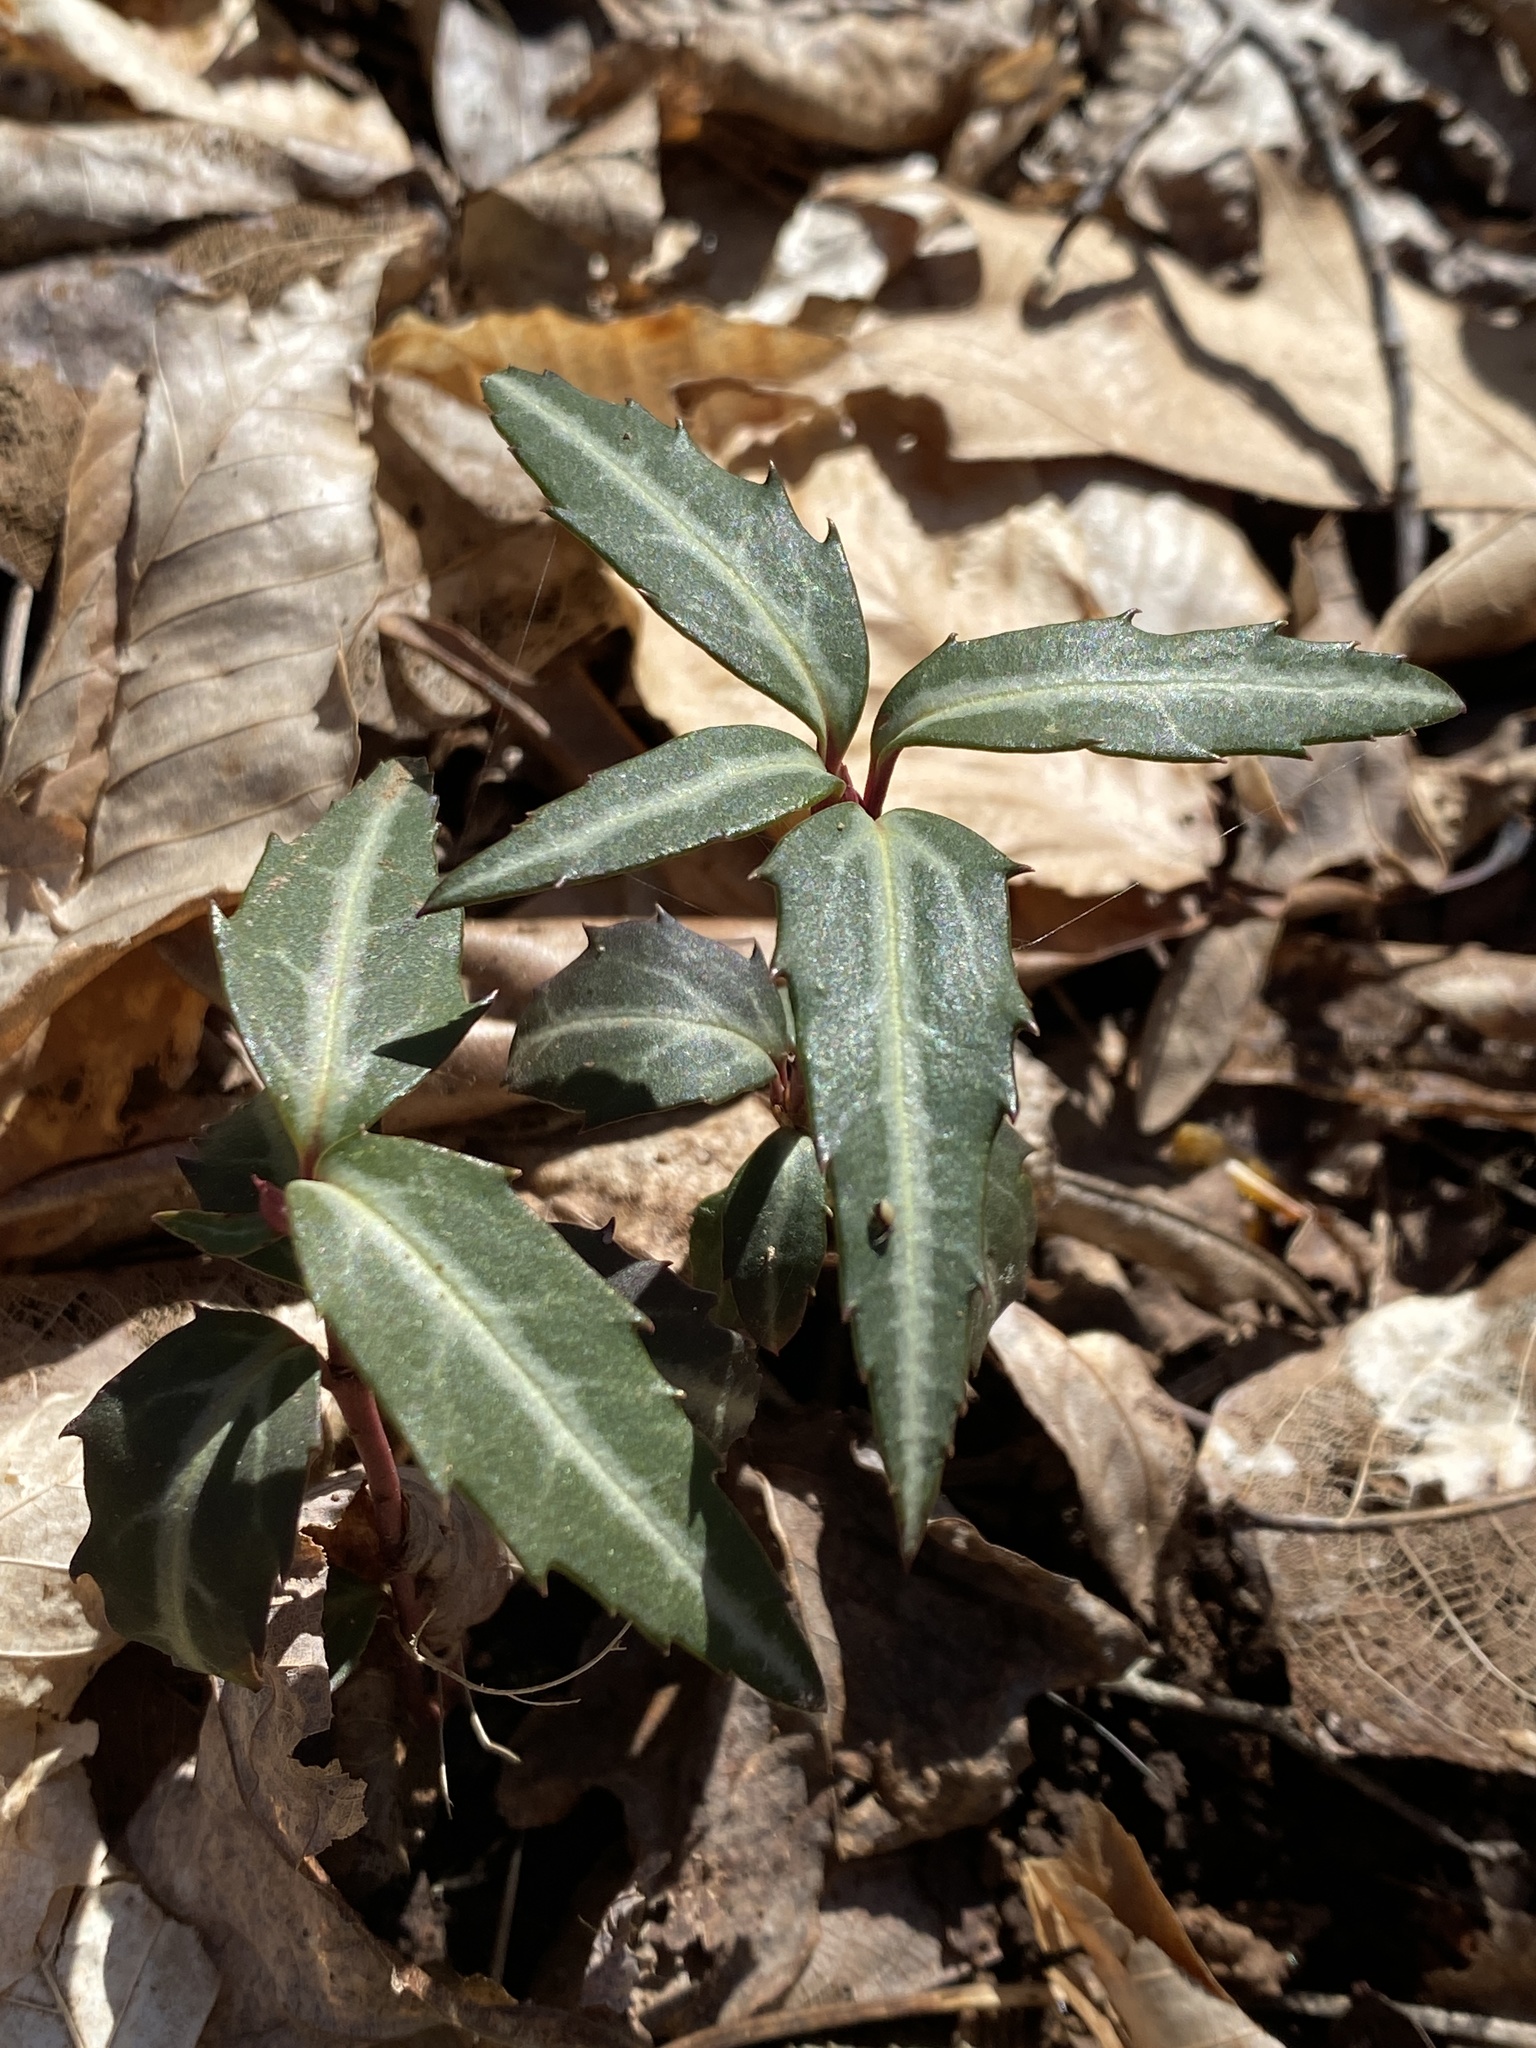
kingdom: Plantae
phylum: Tracheophyta
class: Magnoliopsida
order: Ericales
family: Ericaceae
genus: Chimaphila
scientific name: Chimaphila maculata
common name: Spotted pipsissewa
